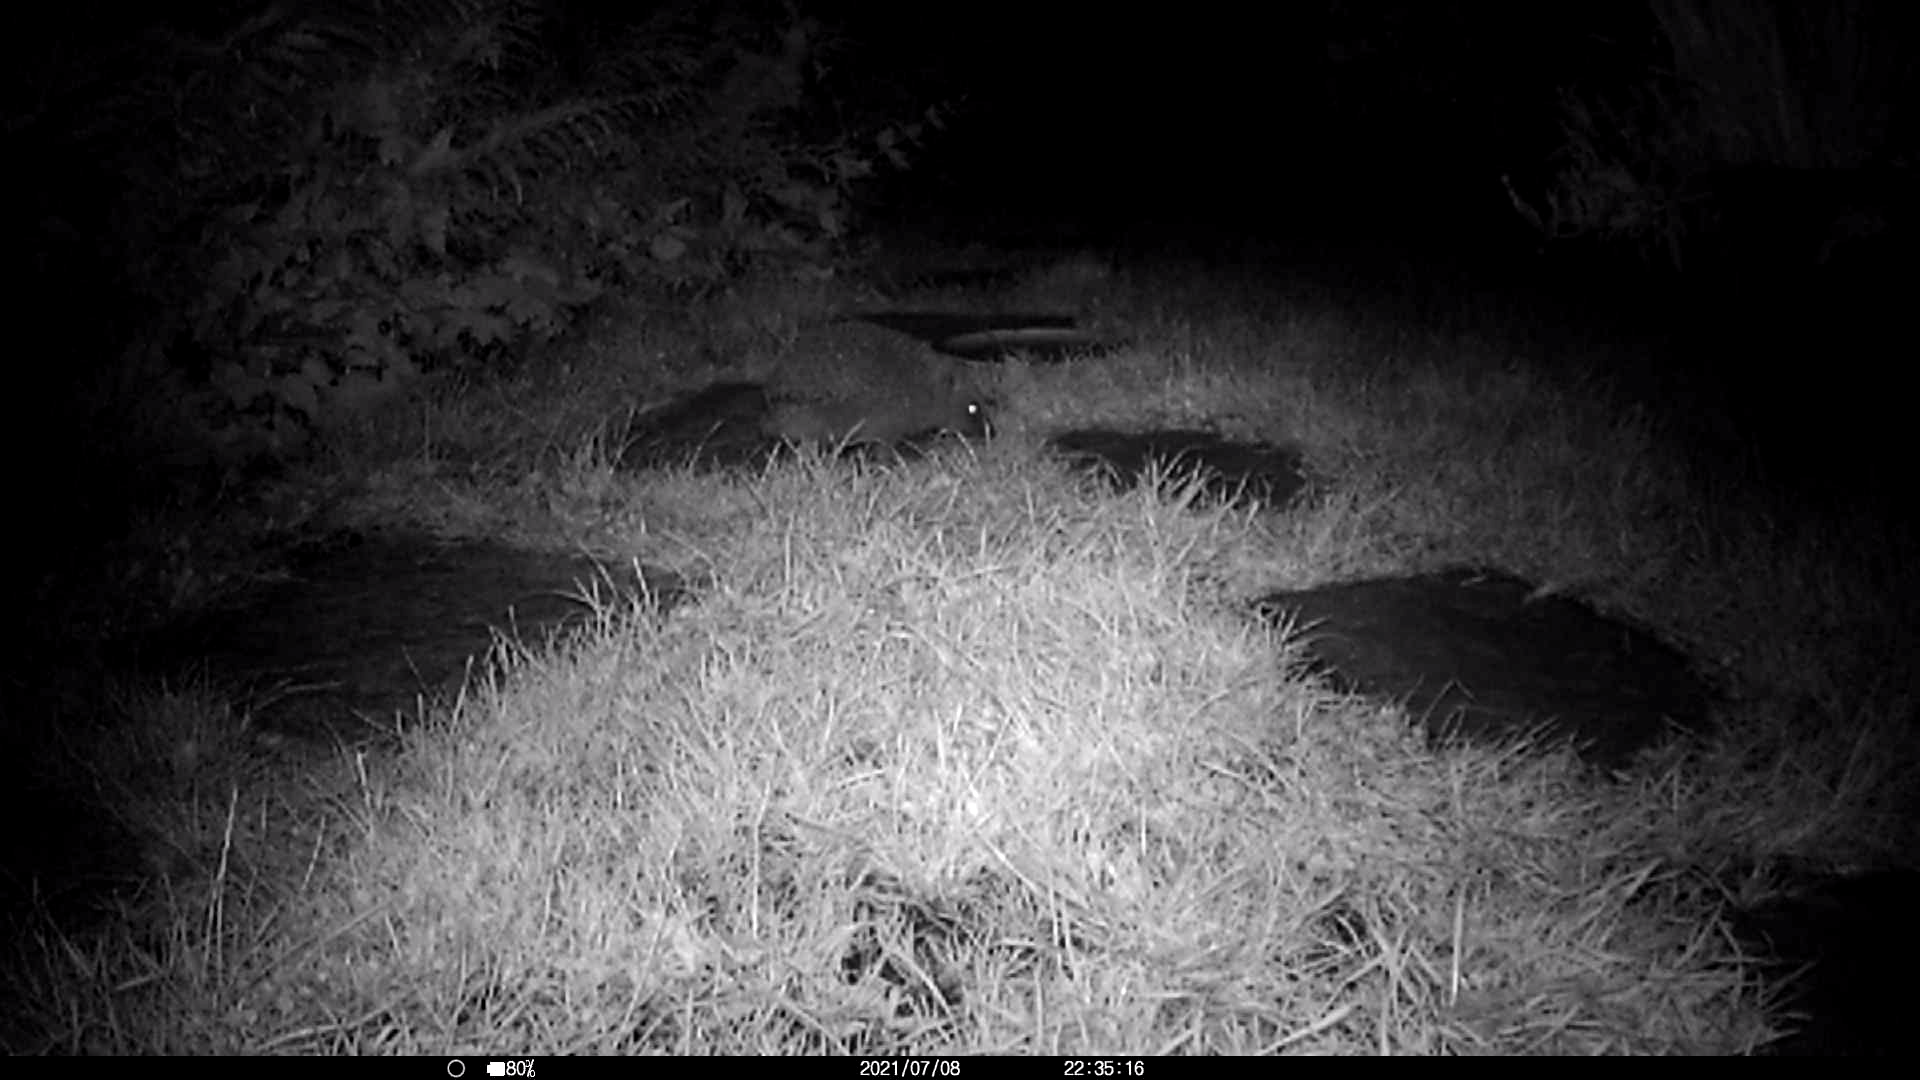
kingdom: Animalia
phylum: Chordata
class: Mammalia
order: Erinaceomorpha
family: Erinaceidae
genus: Erinaceus
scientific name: Erinaceus europaeus
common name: West european hedgehog
